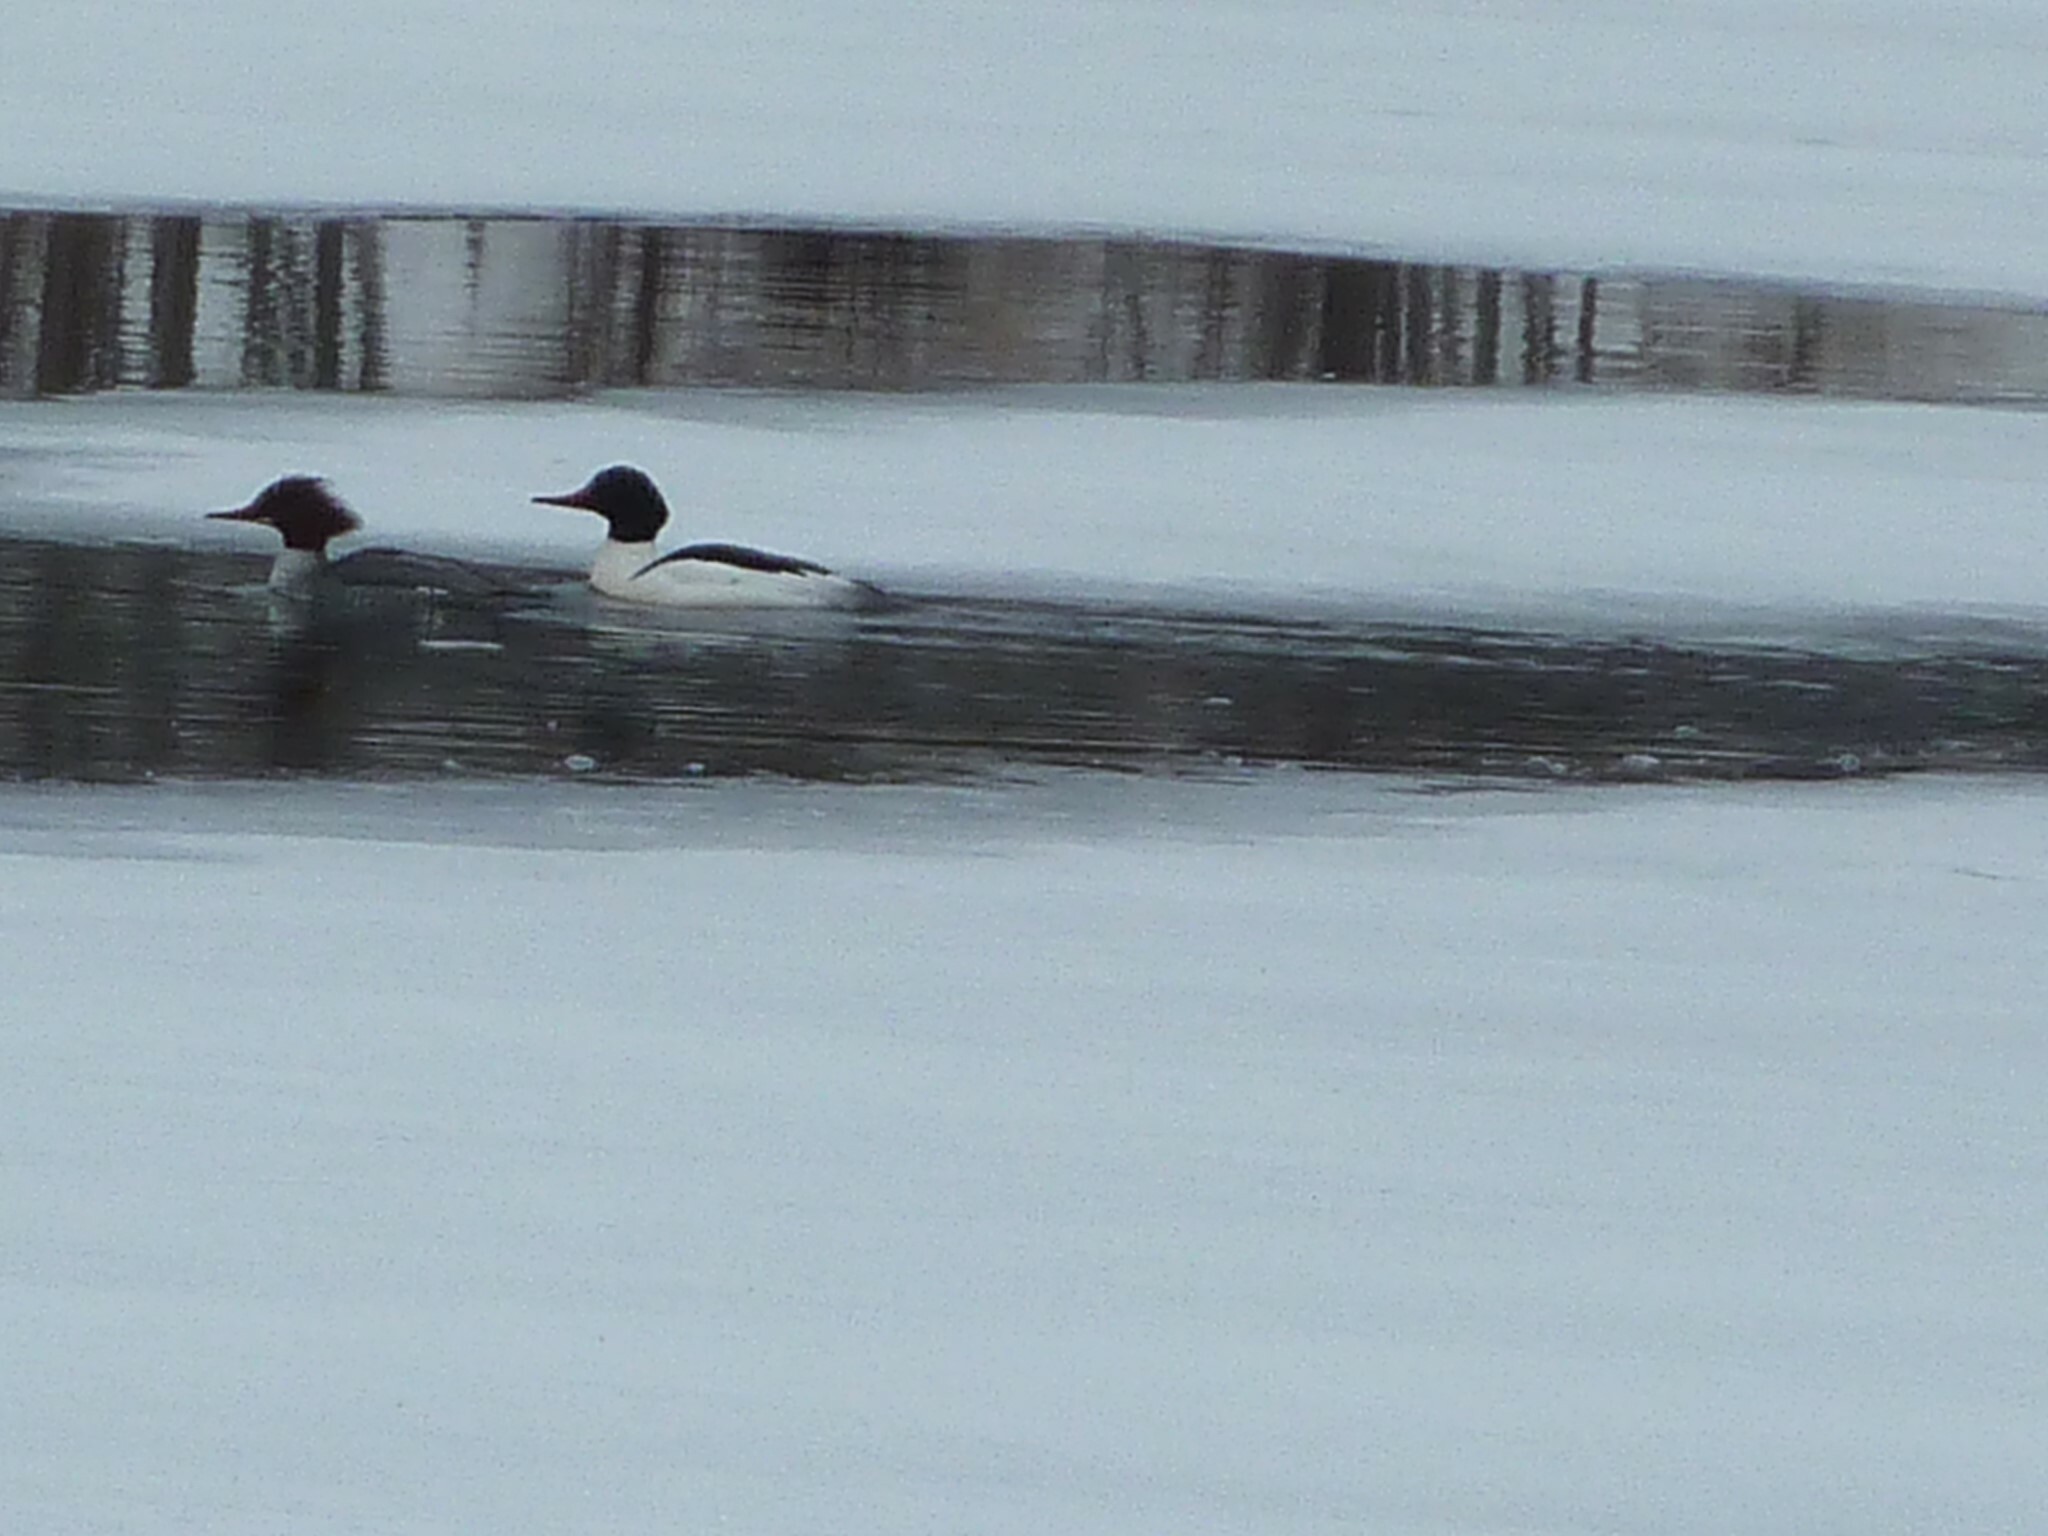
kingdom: Animalia
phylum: Chordata
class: Aves
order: Anseriformes
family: Anatidae
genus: Mergus
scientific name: Mergus merganser
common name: Common merganser
